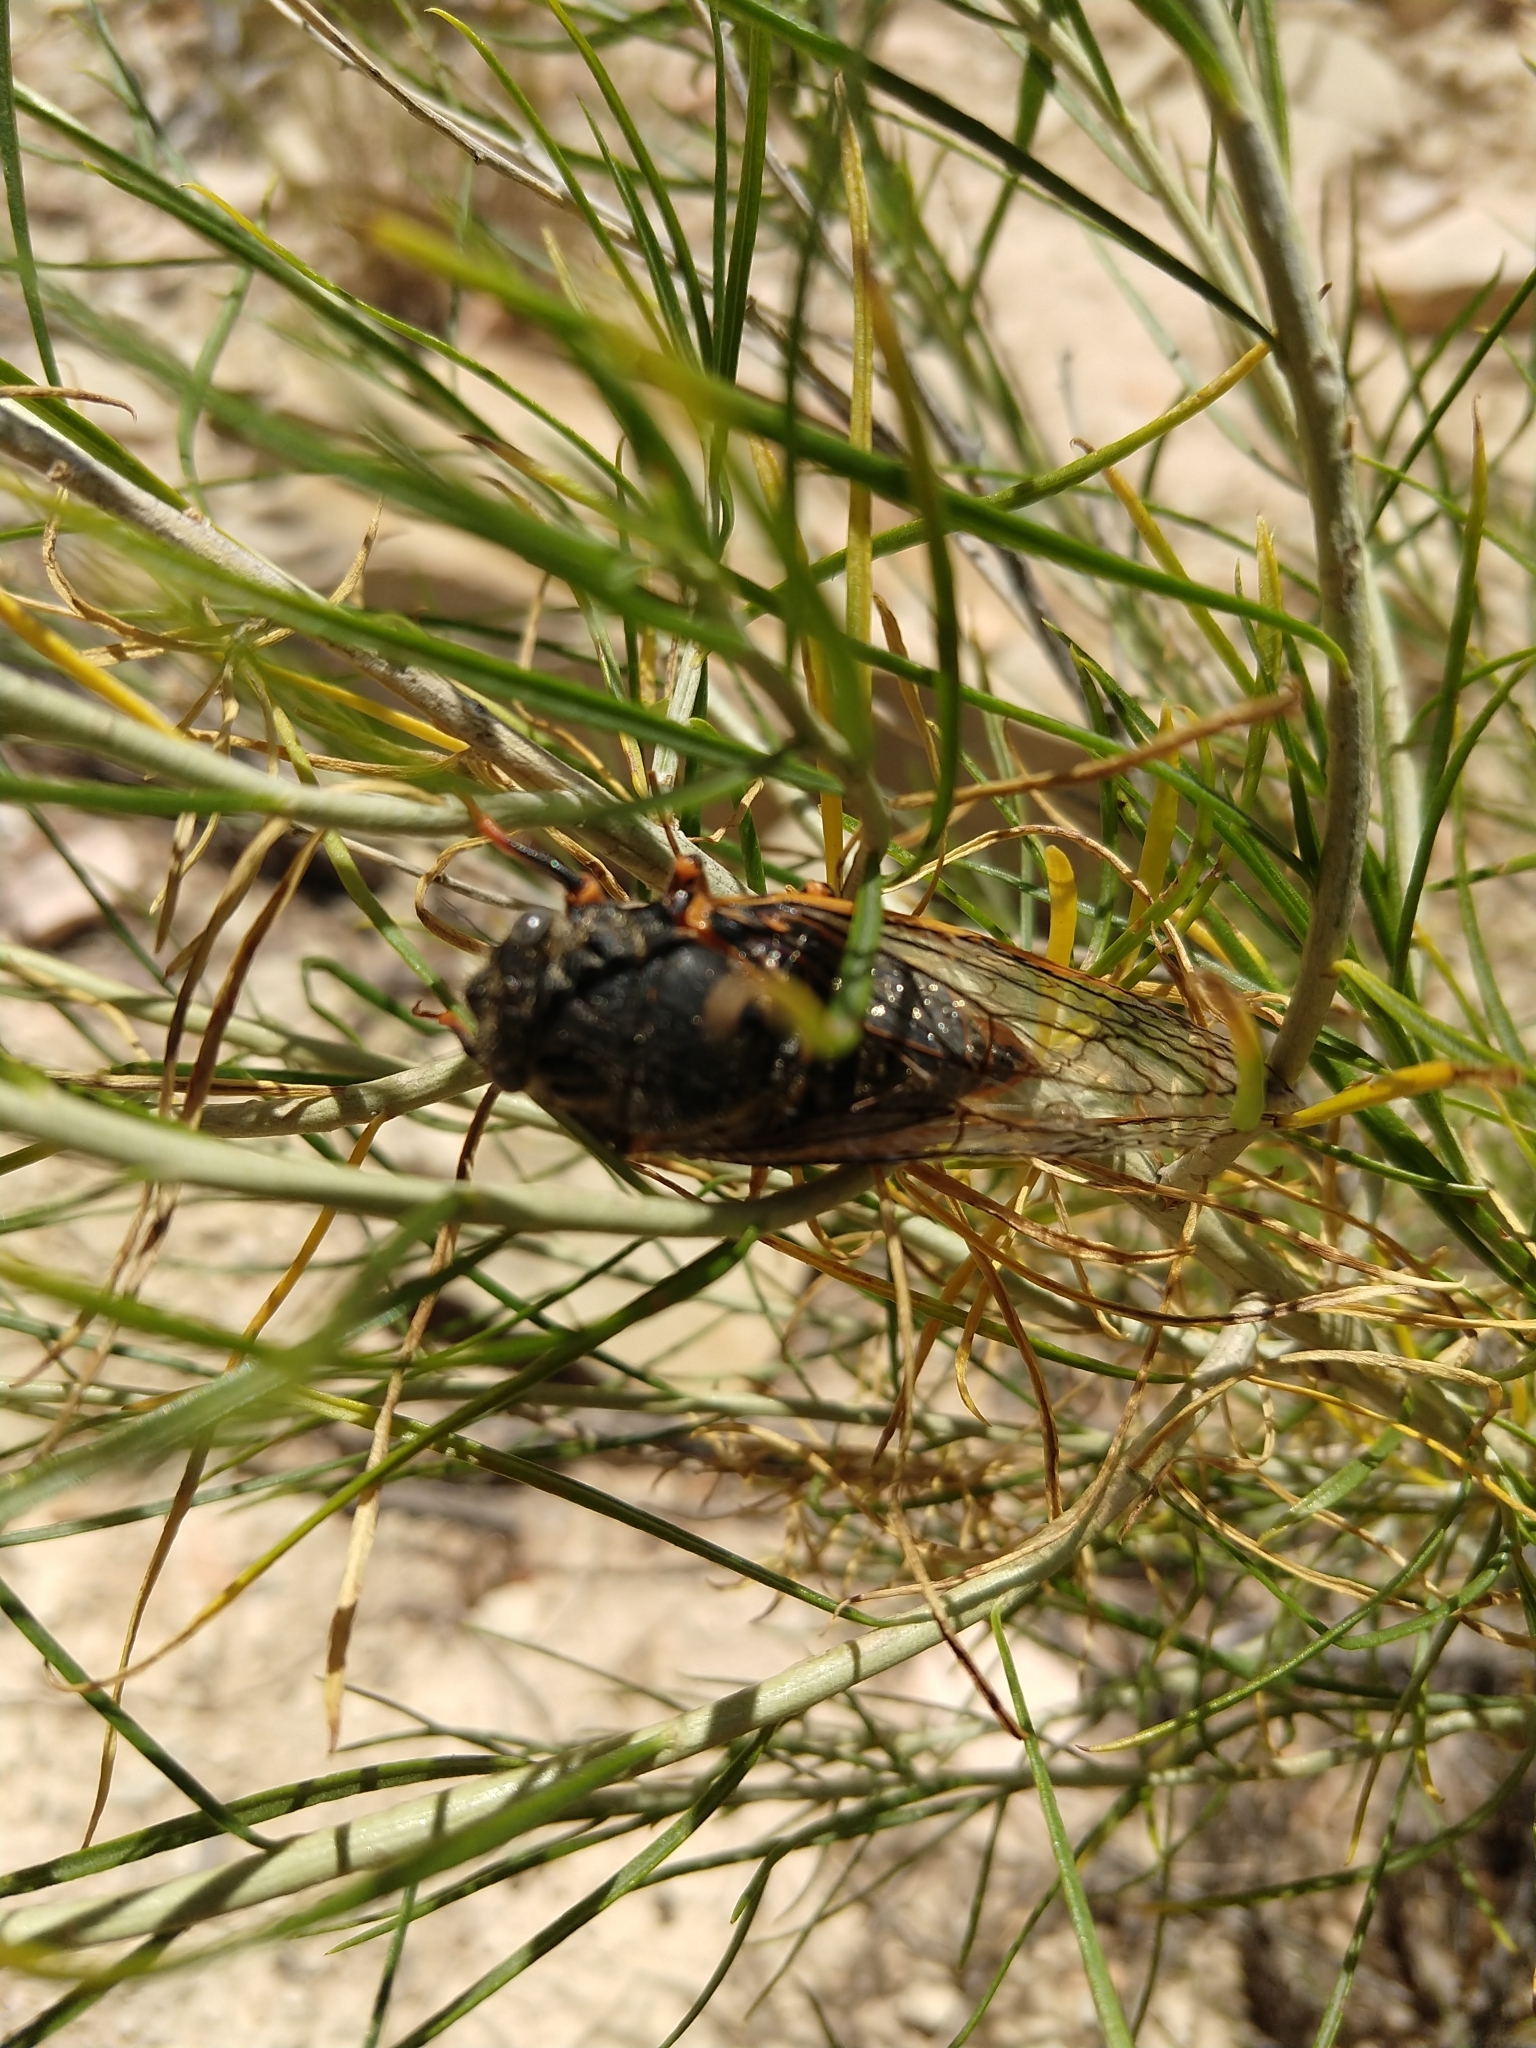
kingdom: Animalia
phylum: Arthropoda
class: Insecta
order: Hemiptera
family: Cicadidae
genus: Okanagana
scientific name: Okanagana magnifica
